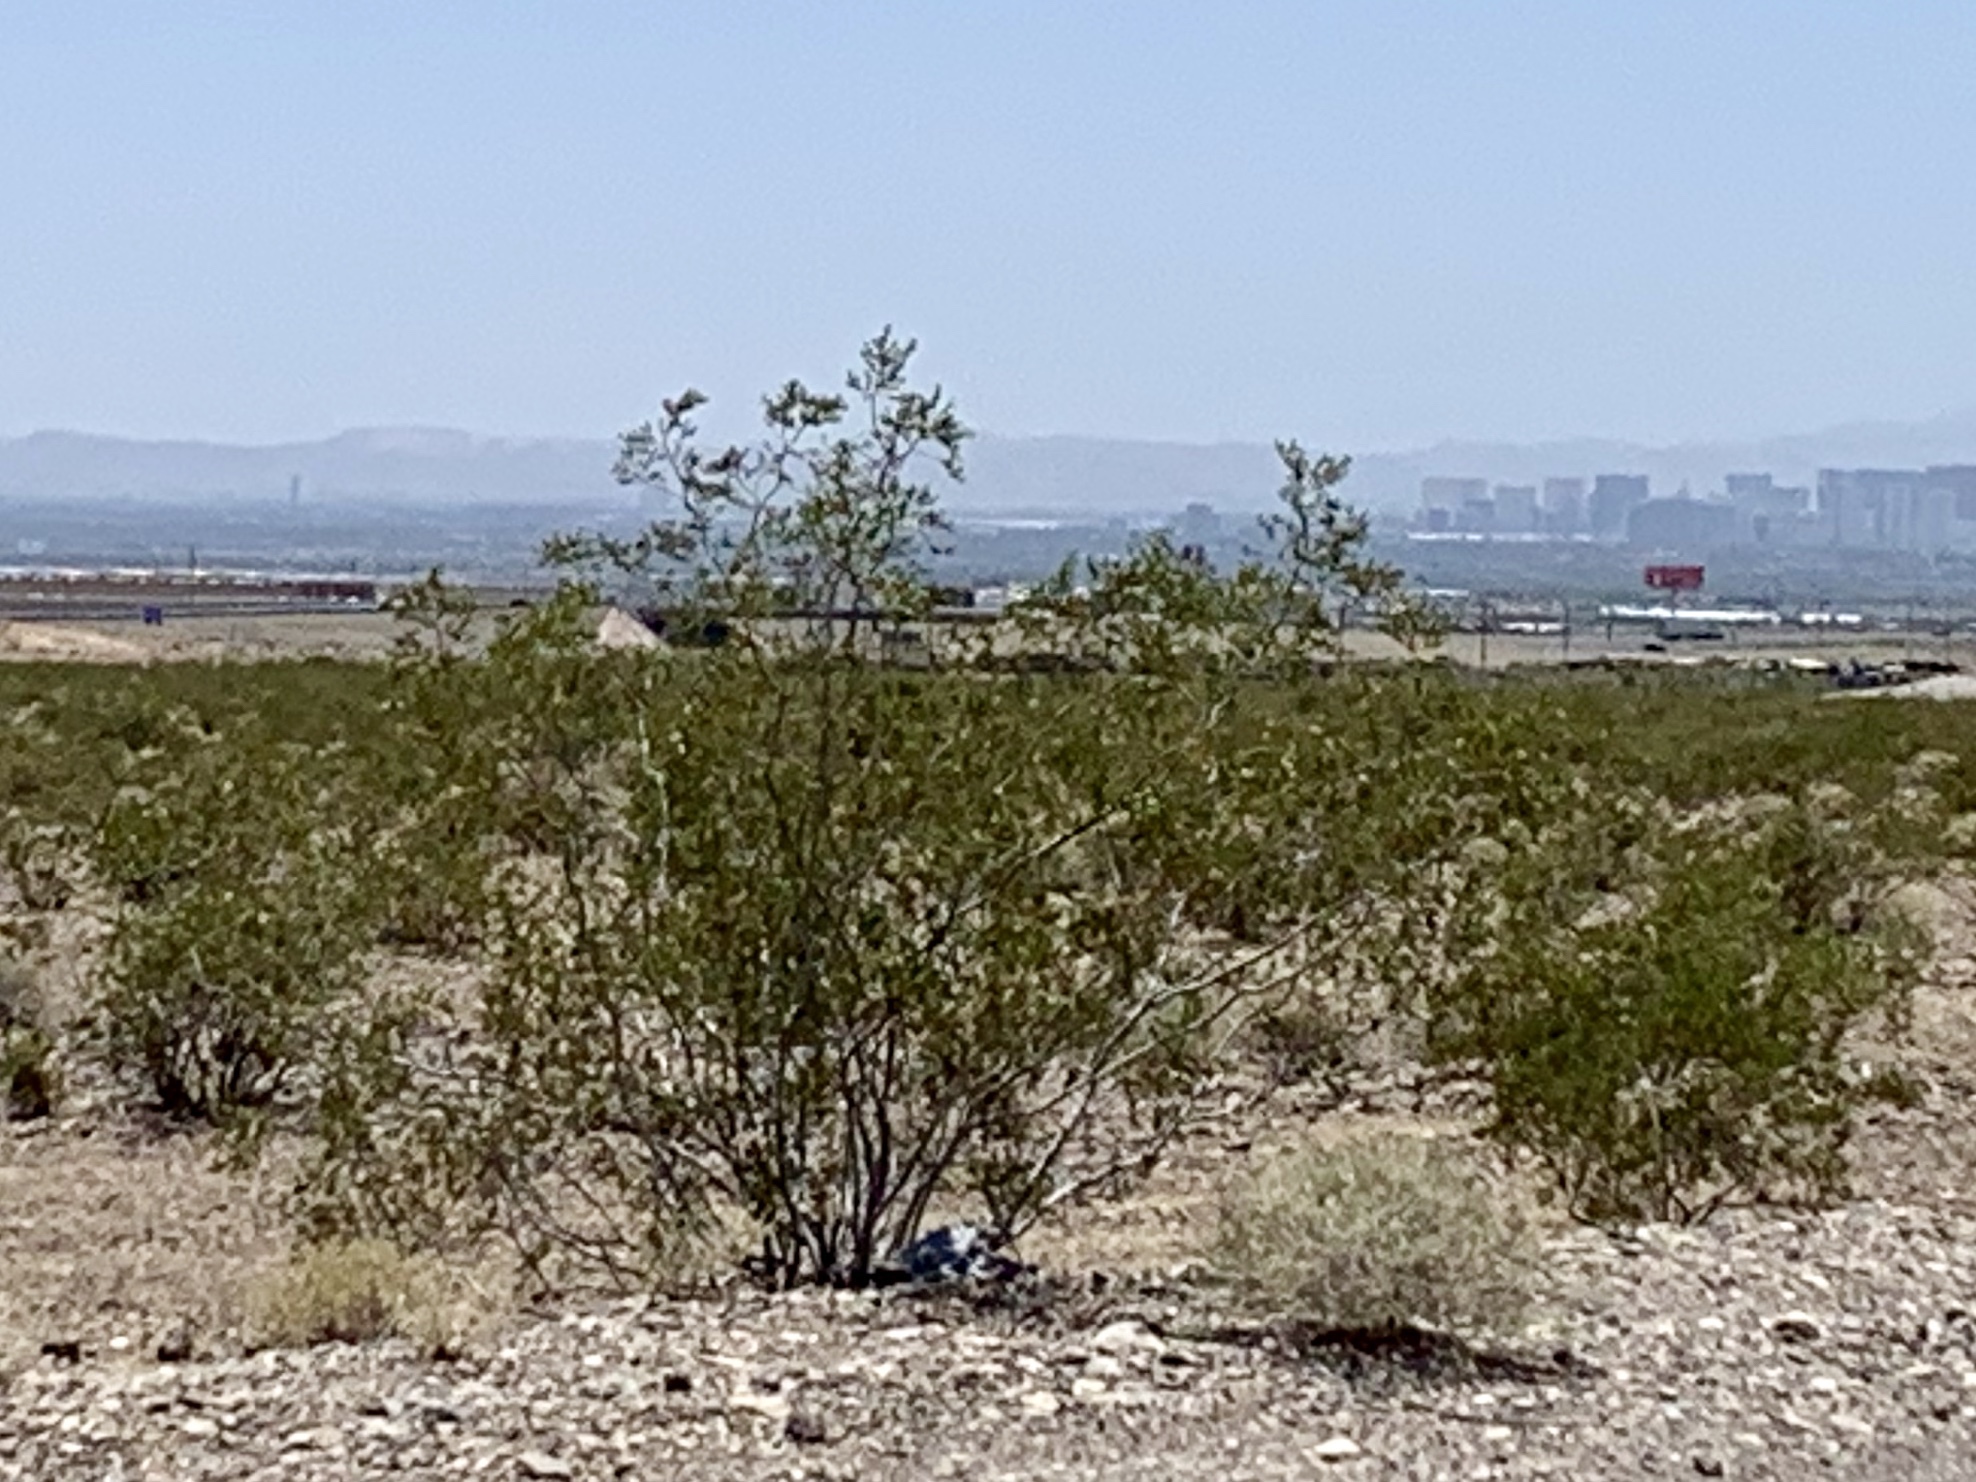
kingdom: Plantae
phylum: Tracheophyta
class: Magnoliopsida
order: Zygophyllales
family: Zygophyllaceae
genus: Larrea
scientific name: Larrea tridentata
